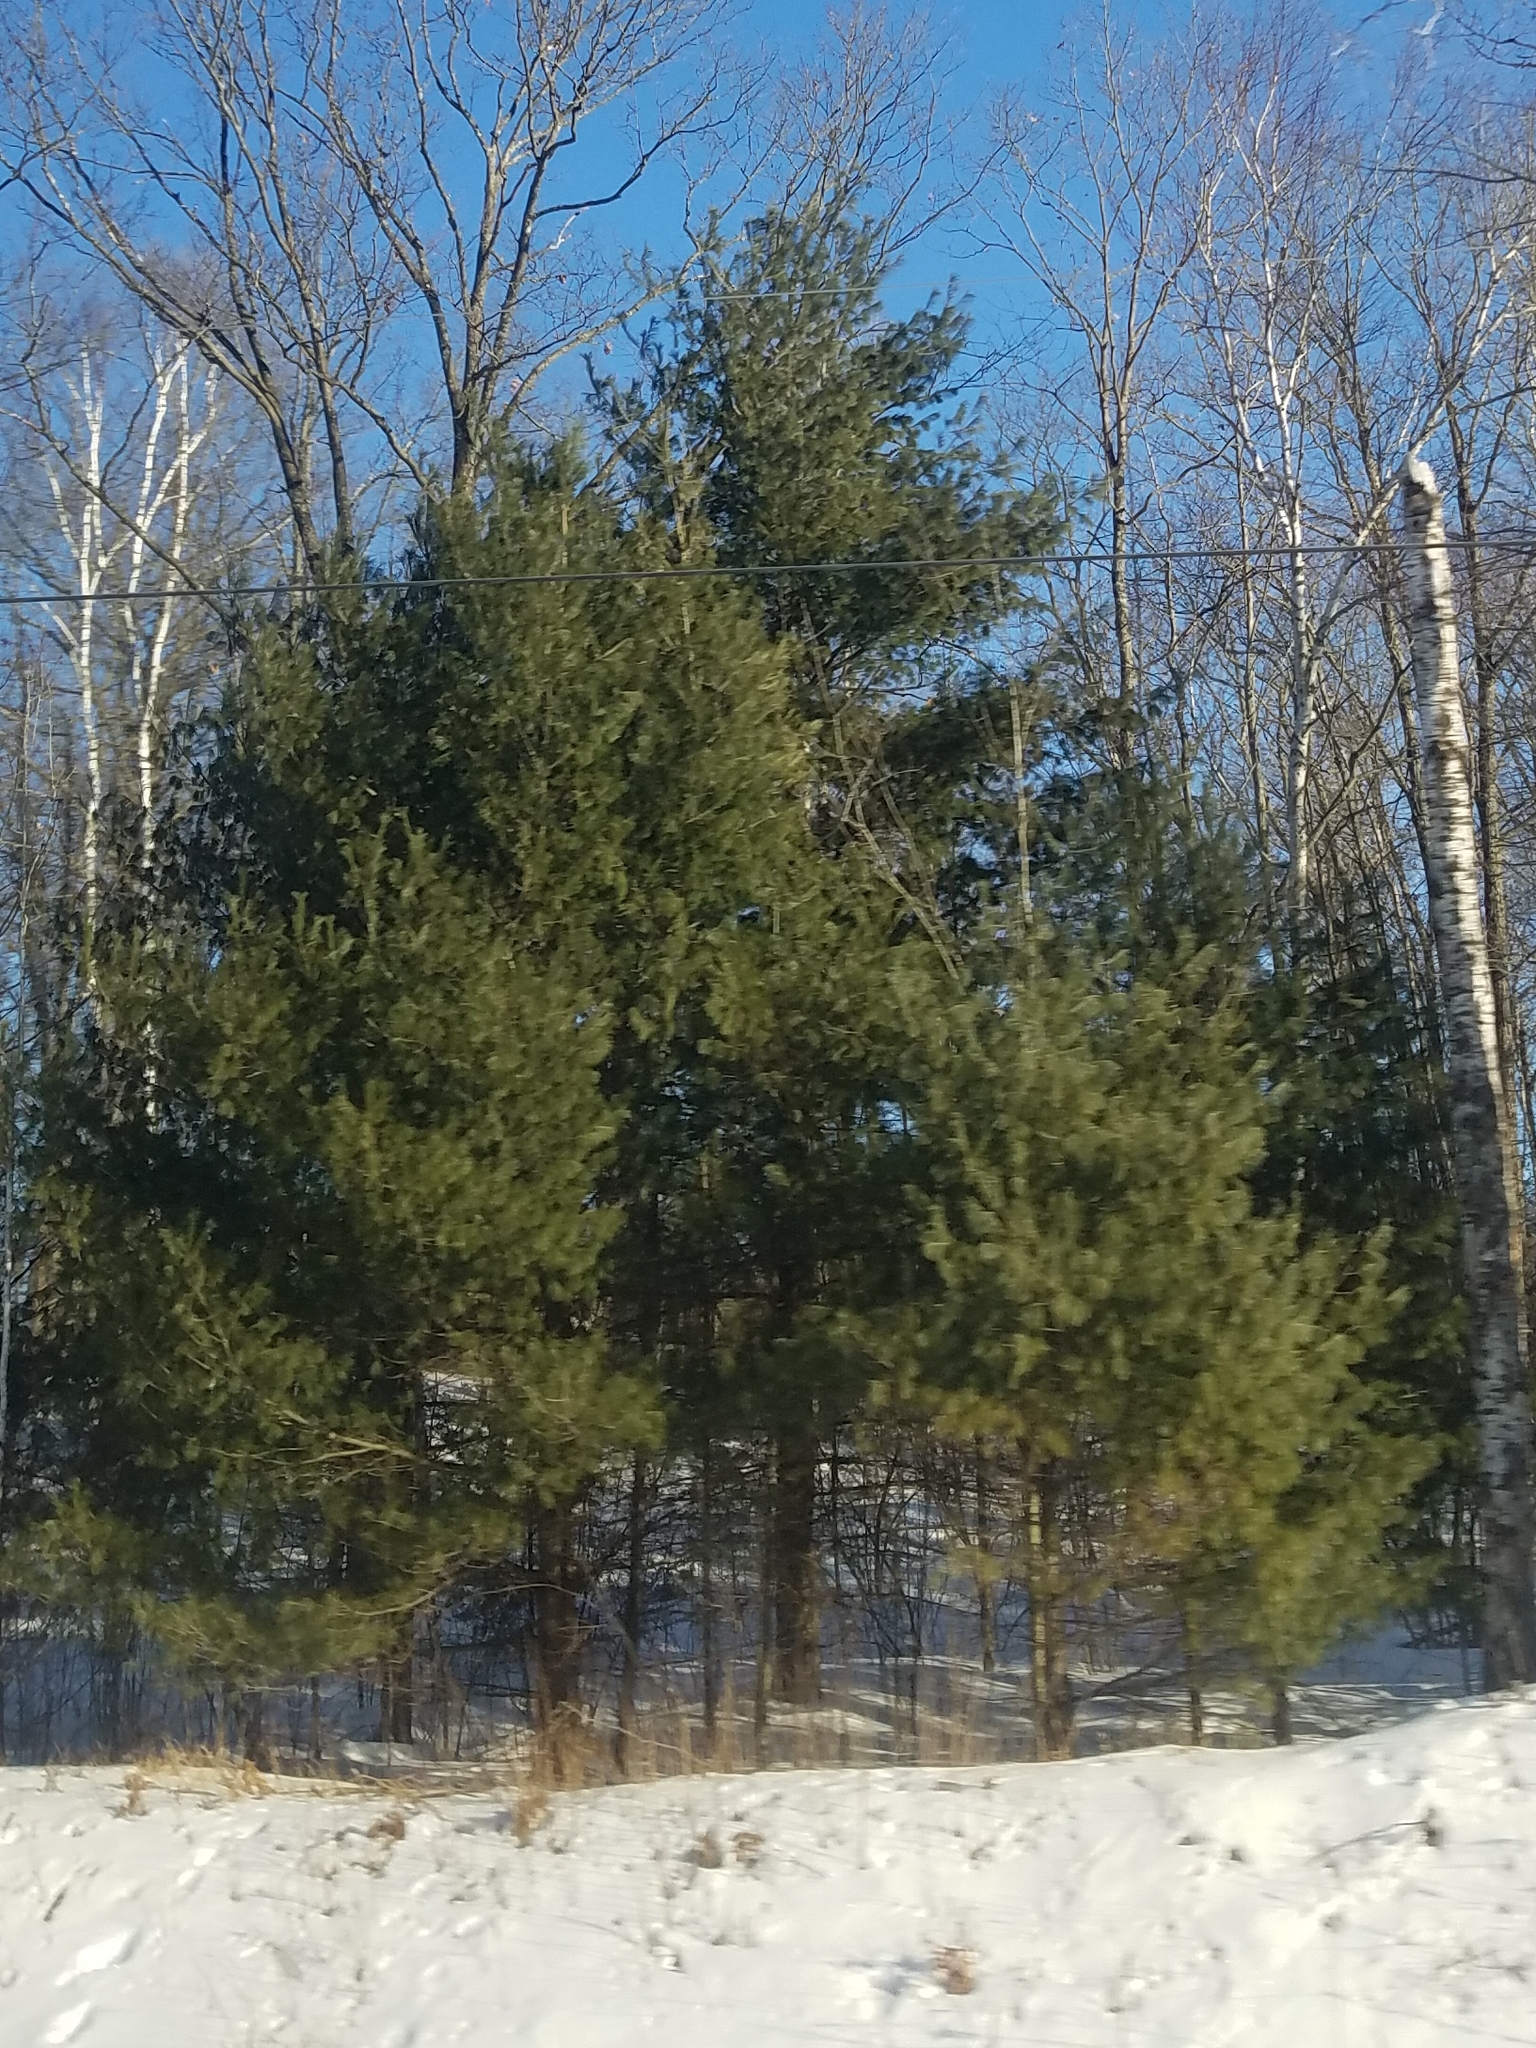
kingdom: Plantae
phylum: Tracheophyta
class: Pinopsida
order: Pinales
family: Pinaceae
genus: Pinus
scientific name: Pinus strobus
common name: Weymouth pine
